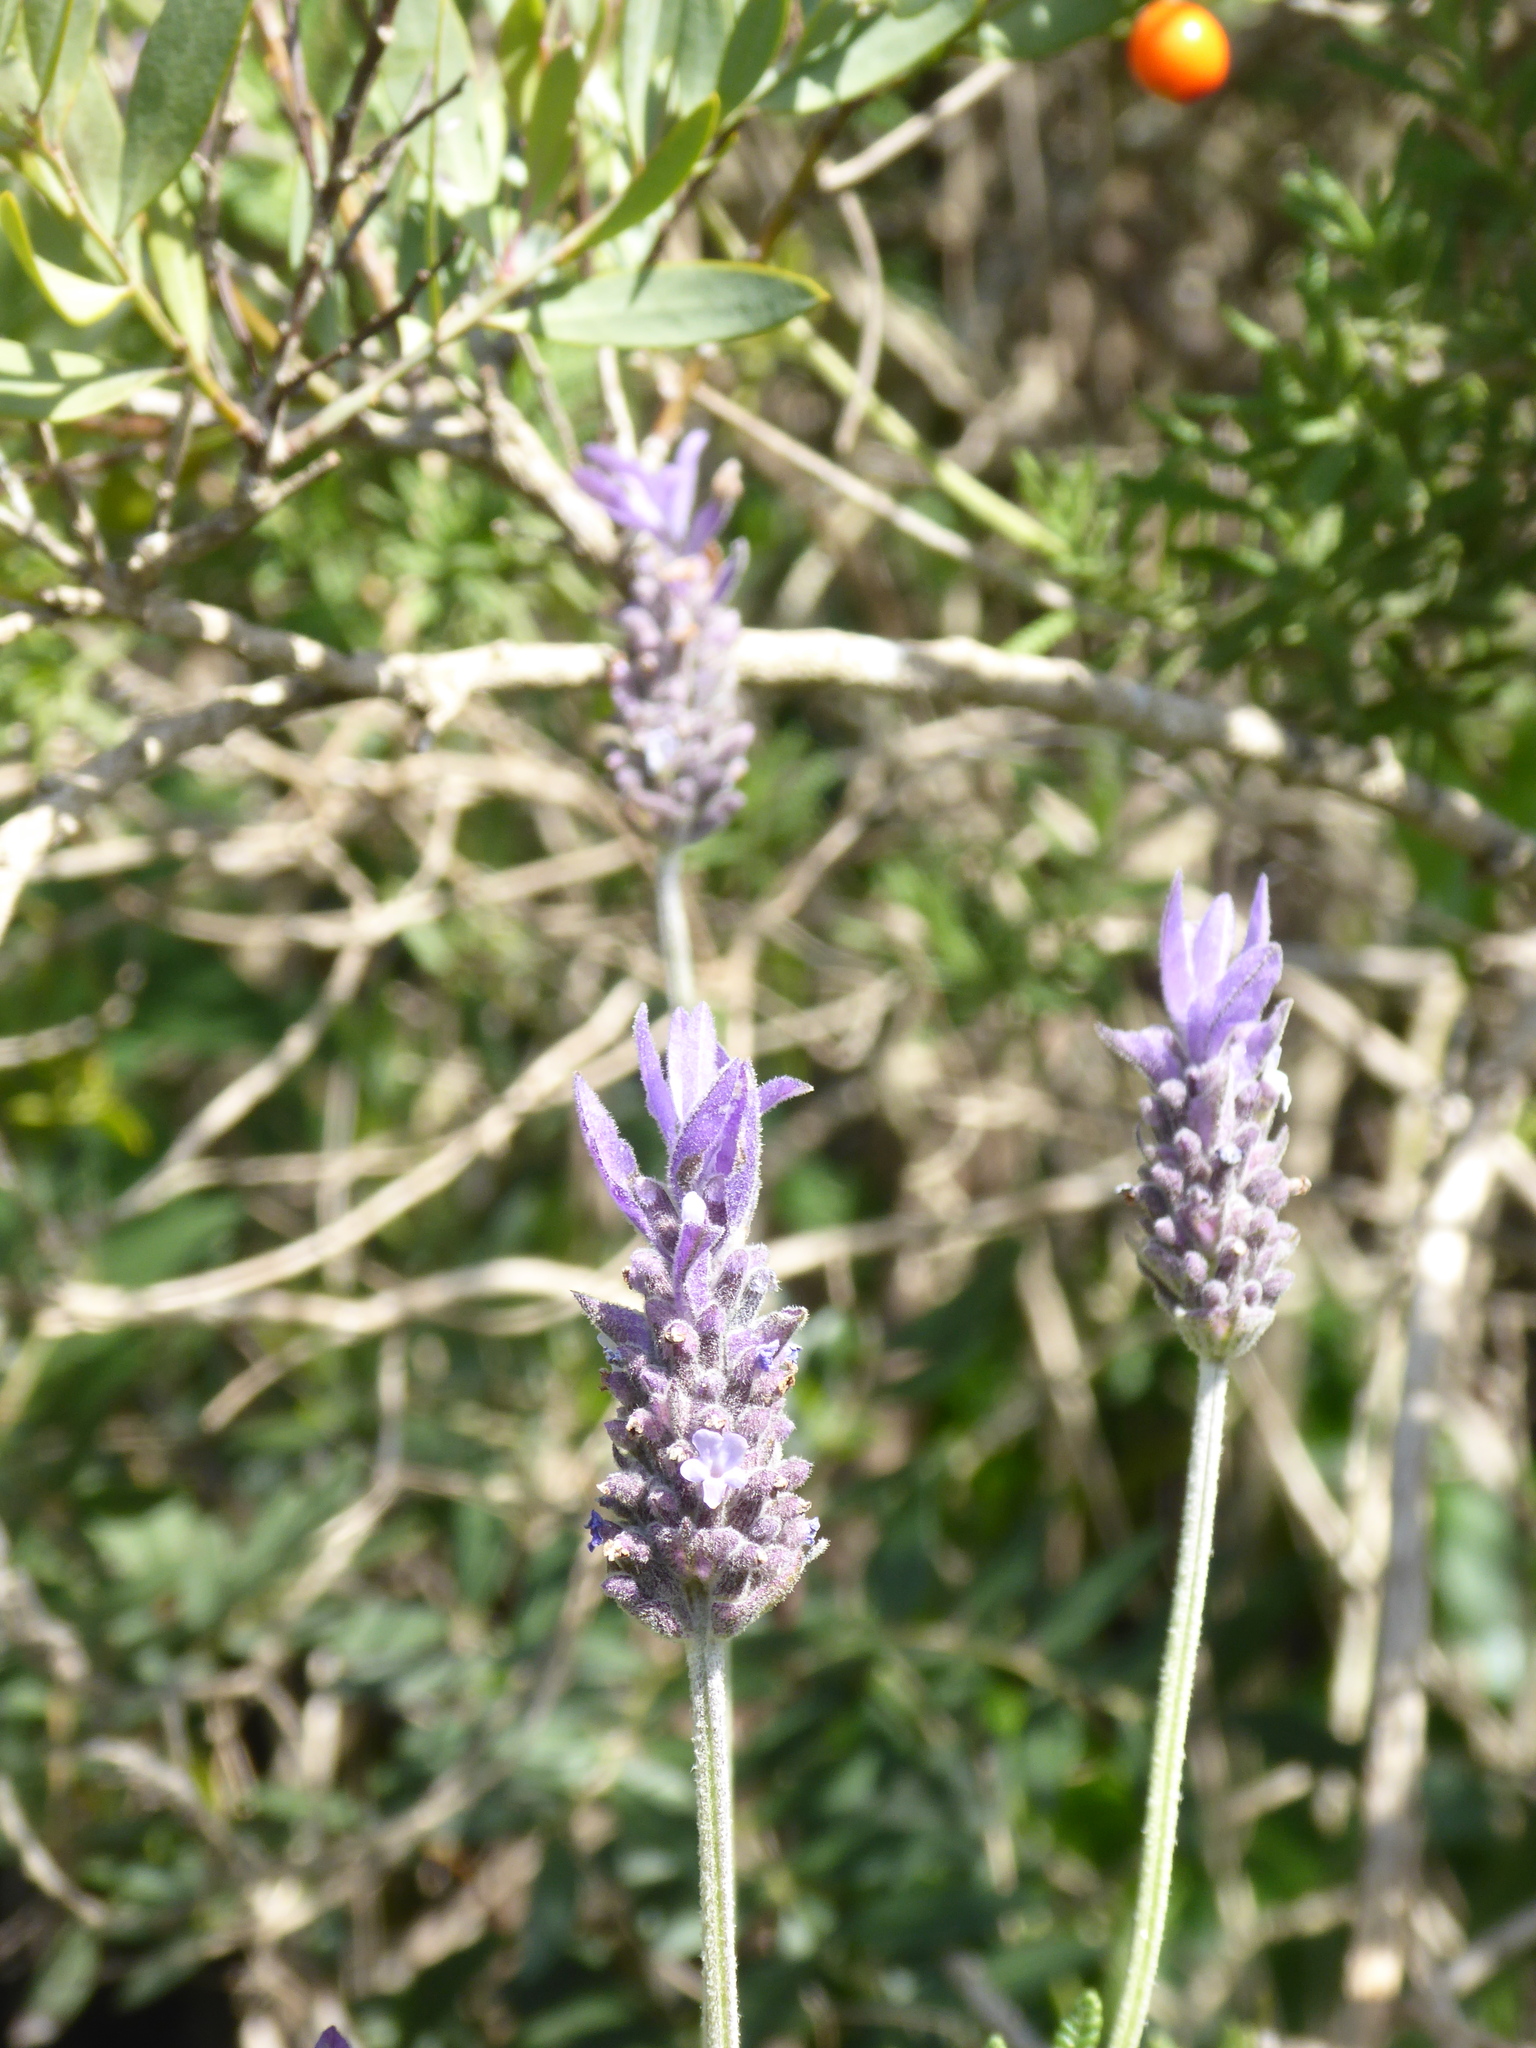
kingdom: Plantae
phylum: Tracheophyta
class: Magnoliopsida
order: Lamiales
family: Lamiaceae
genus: Lavandula
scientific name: Lavandula dentata
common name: French lavender
